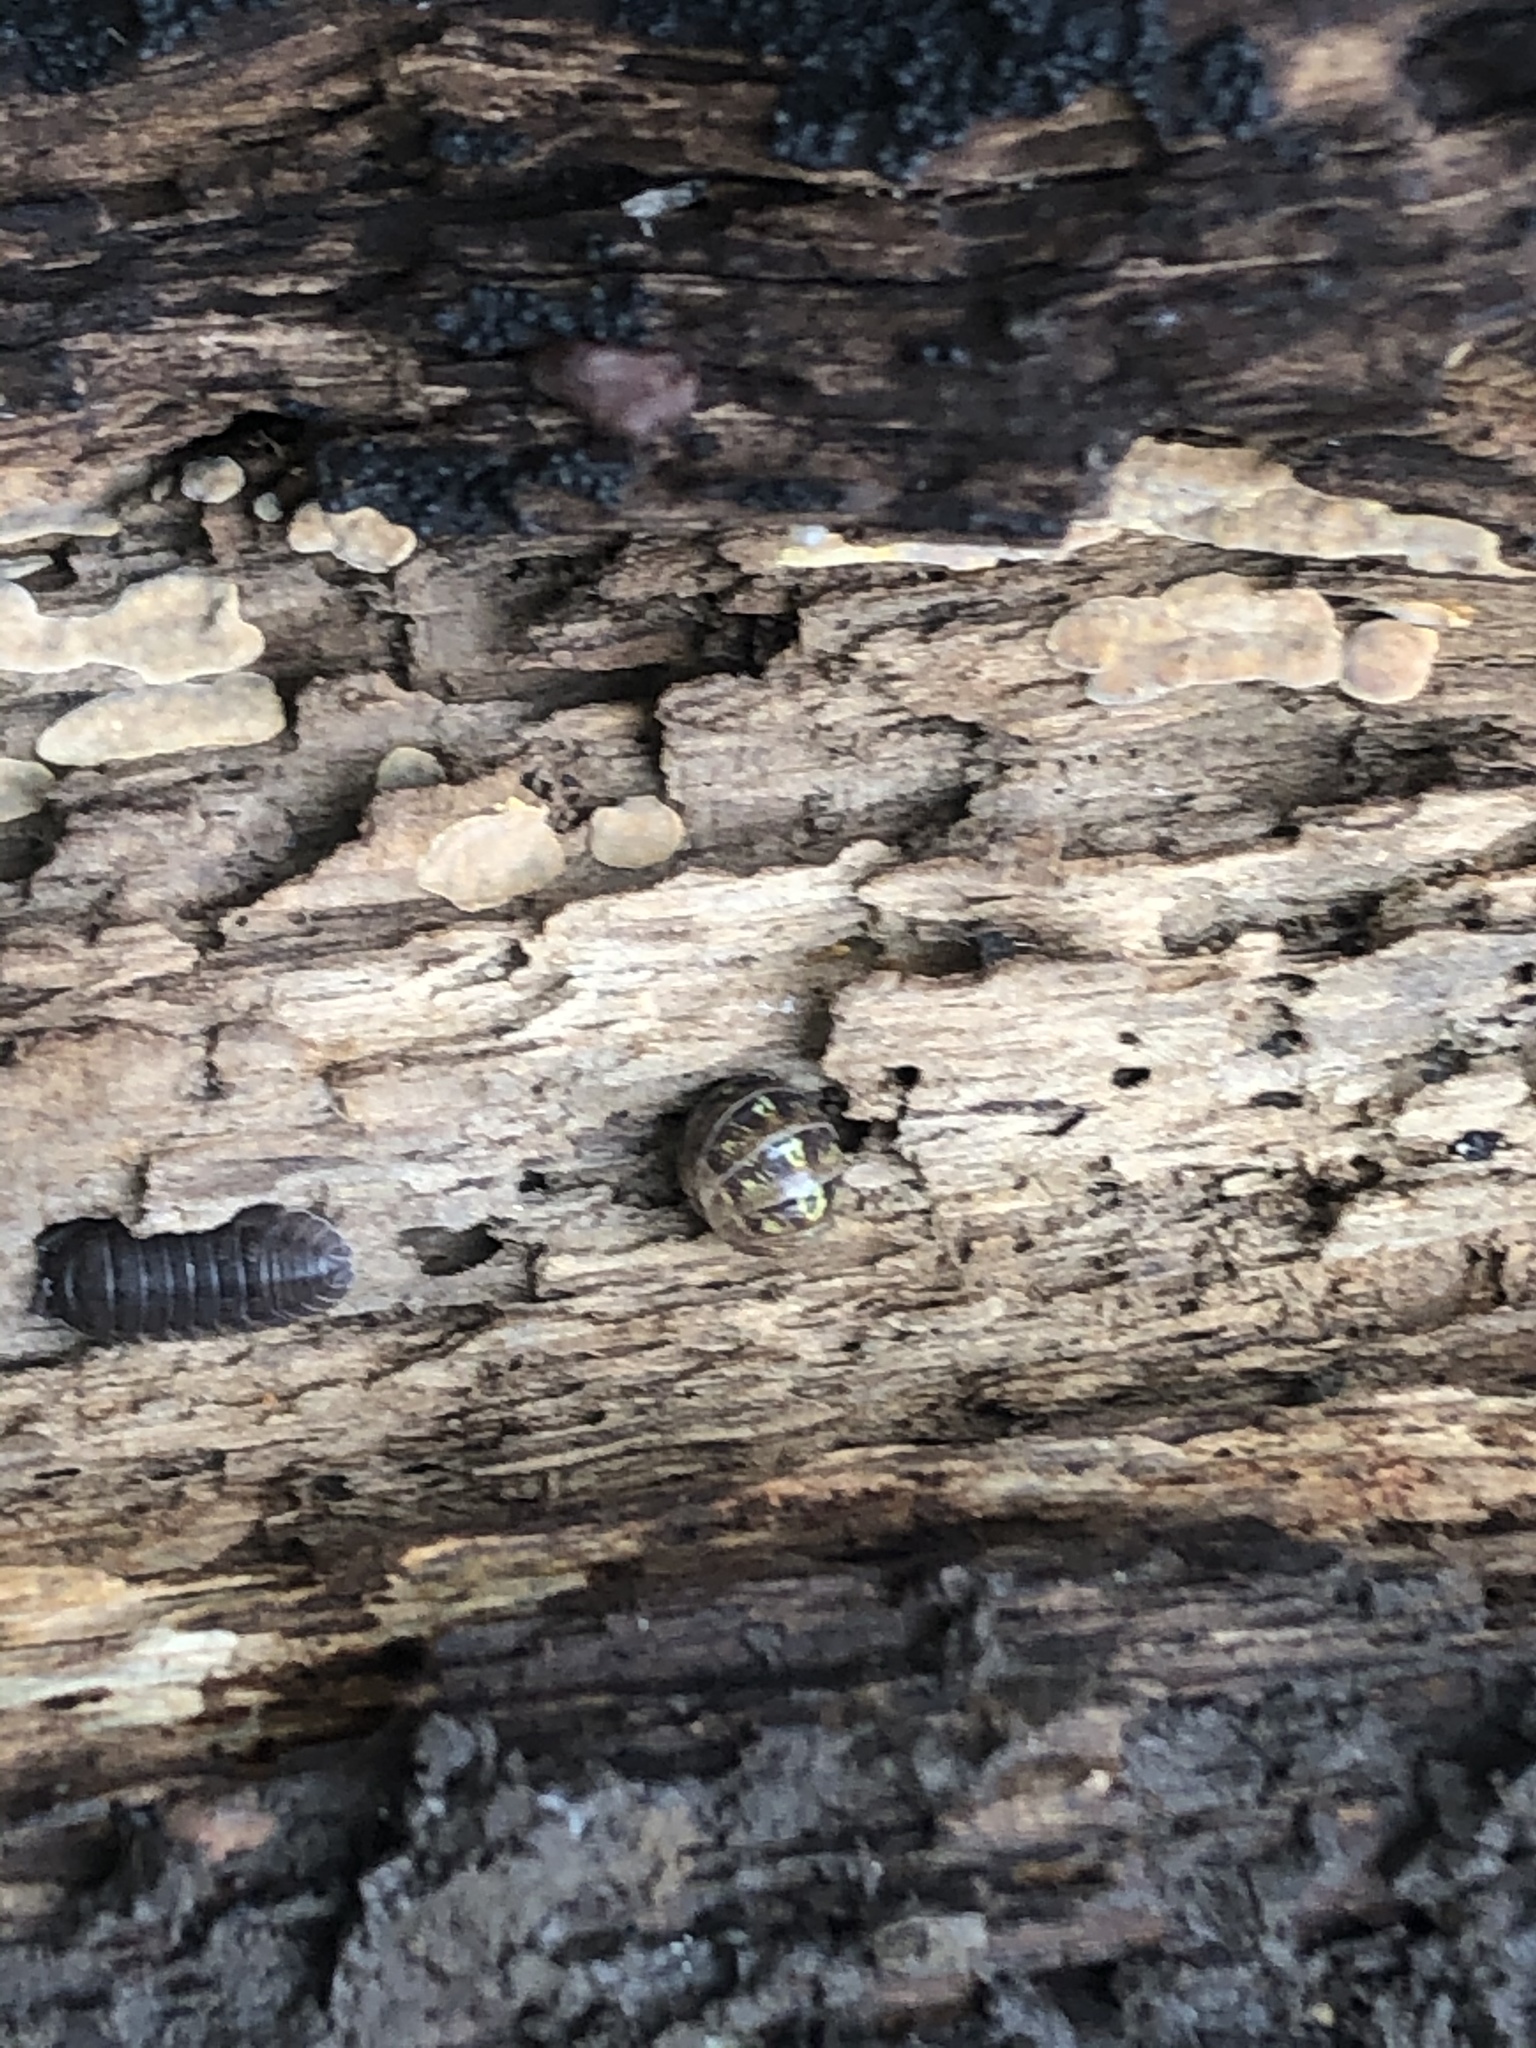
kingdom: Animalia
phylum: Arthropoda
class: Malacostraca
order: Isopoda
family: Armadillidiidae
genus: Armadillidium
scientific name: Armadillidium vulgare
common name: Common pill woodlouse
